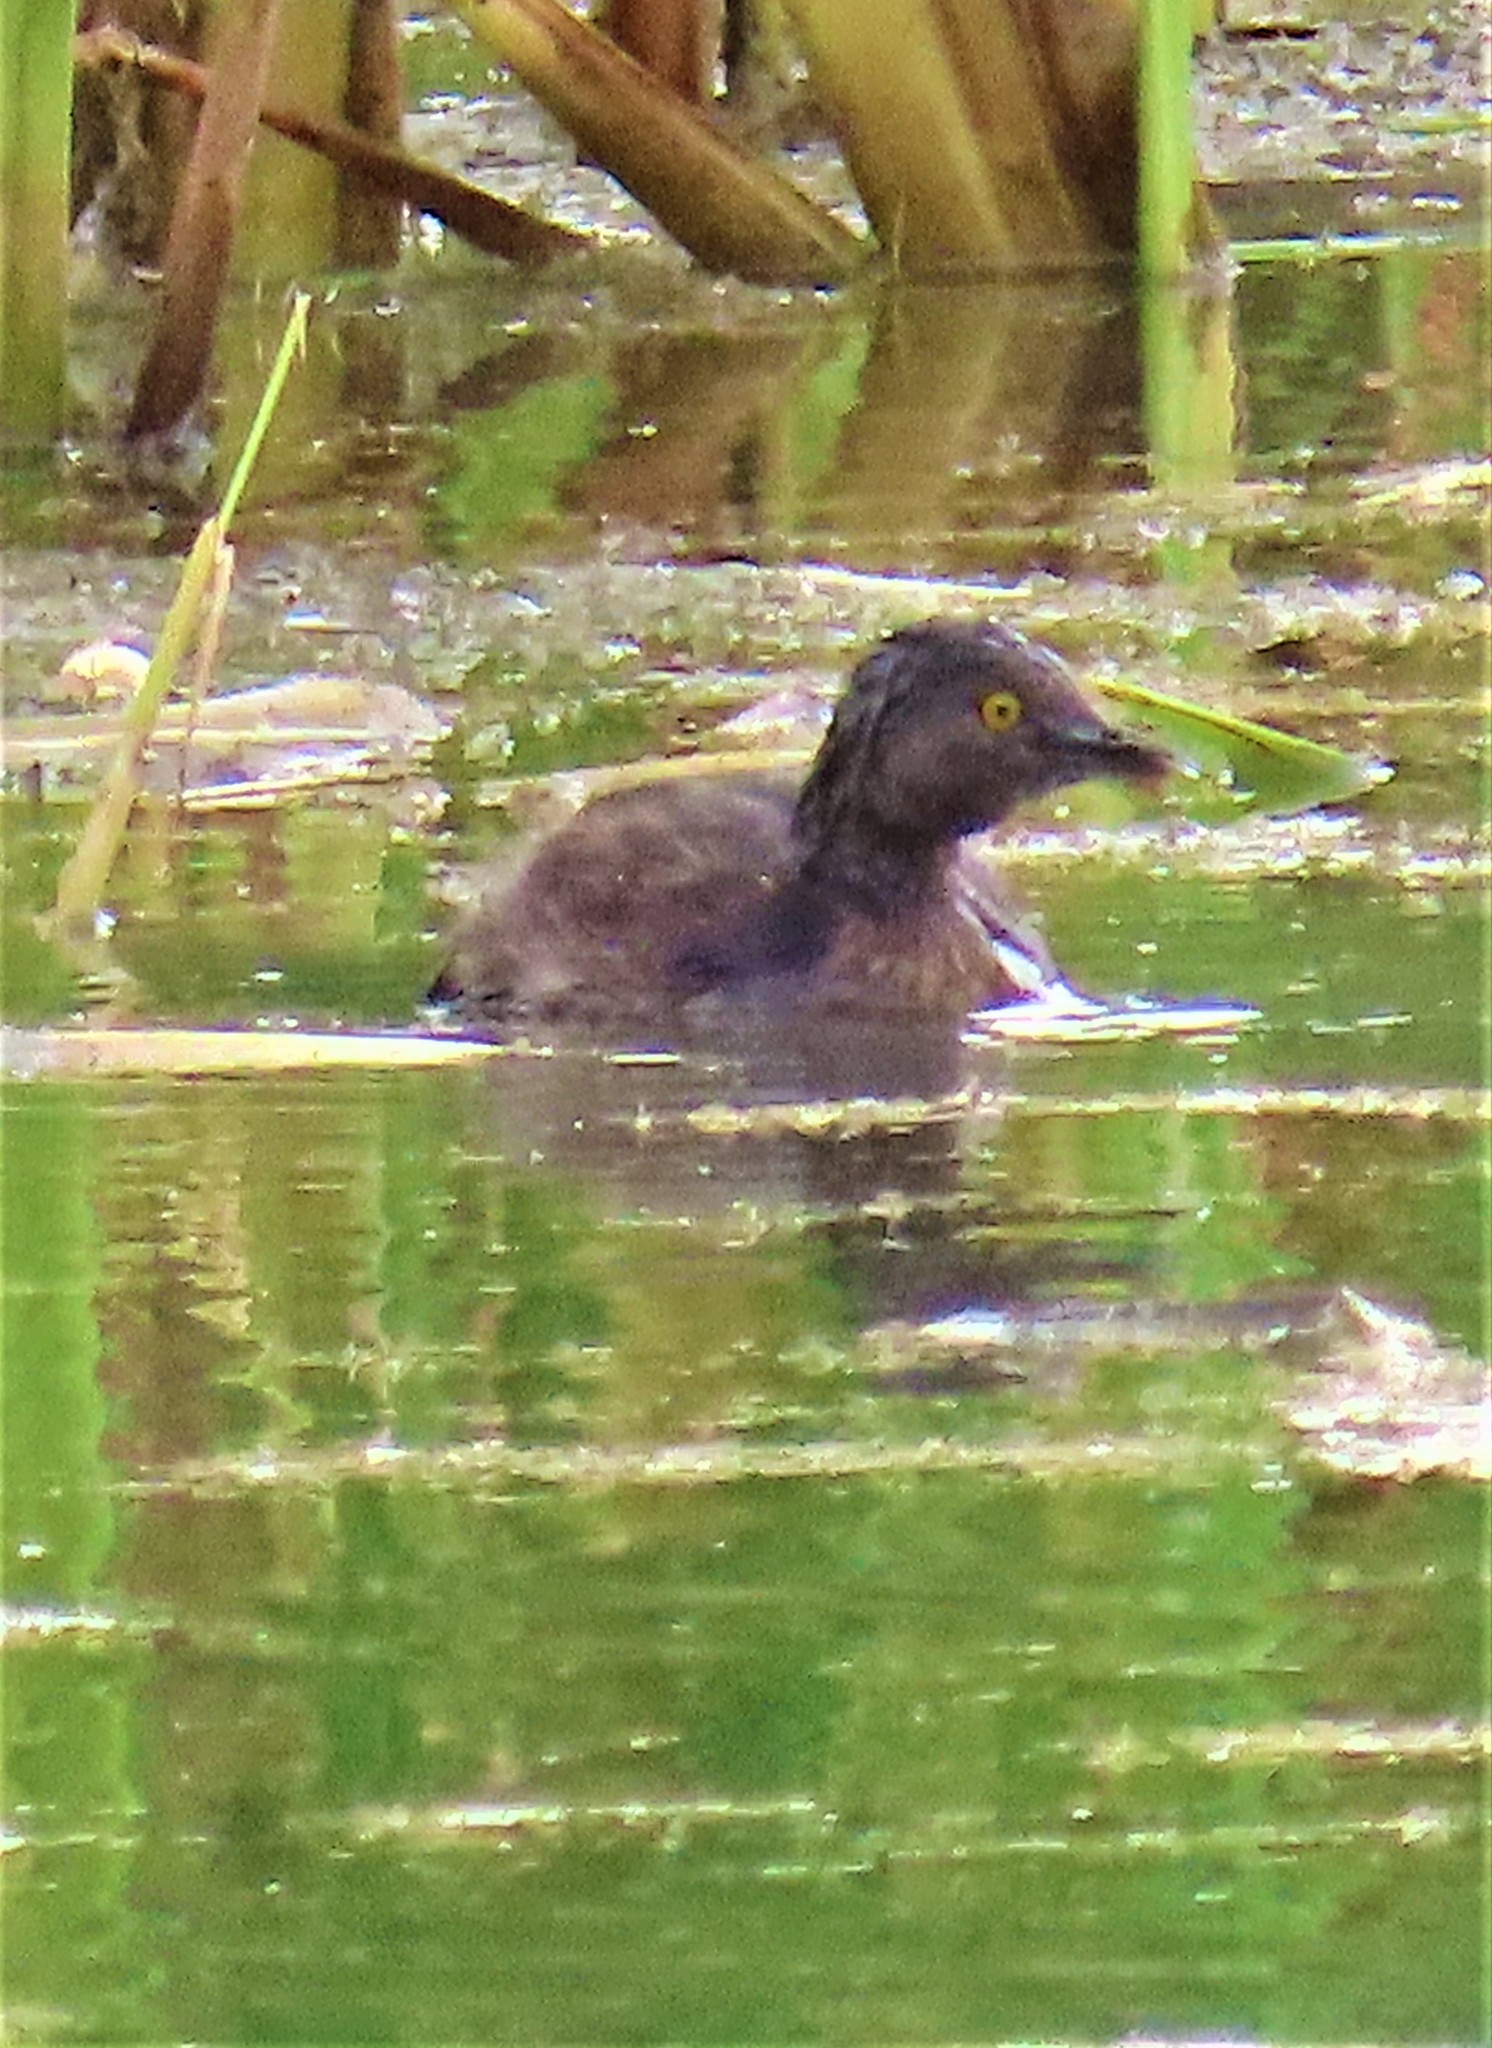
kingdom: Animalia
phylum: Chordata
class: Aves
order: Podicipediformes
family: Podicipedidae
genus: Tachybaptus
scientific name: Tachybaptus dominicus
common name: Least grebe
